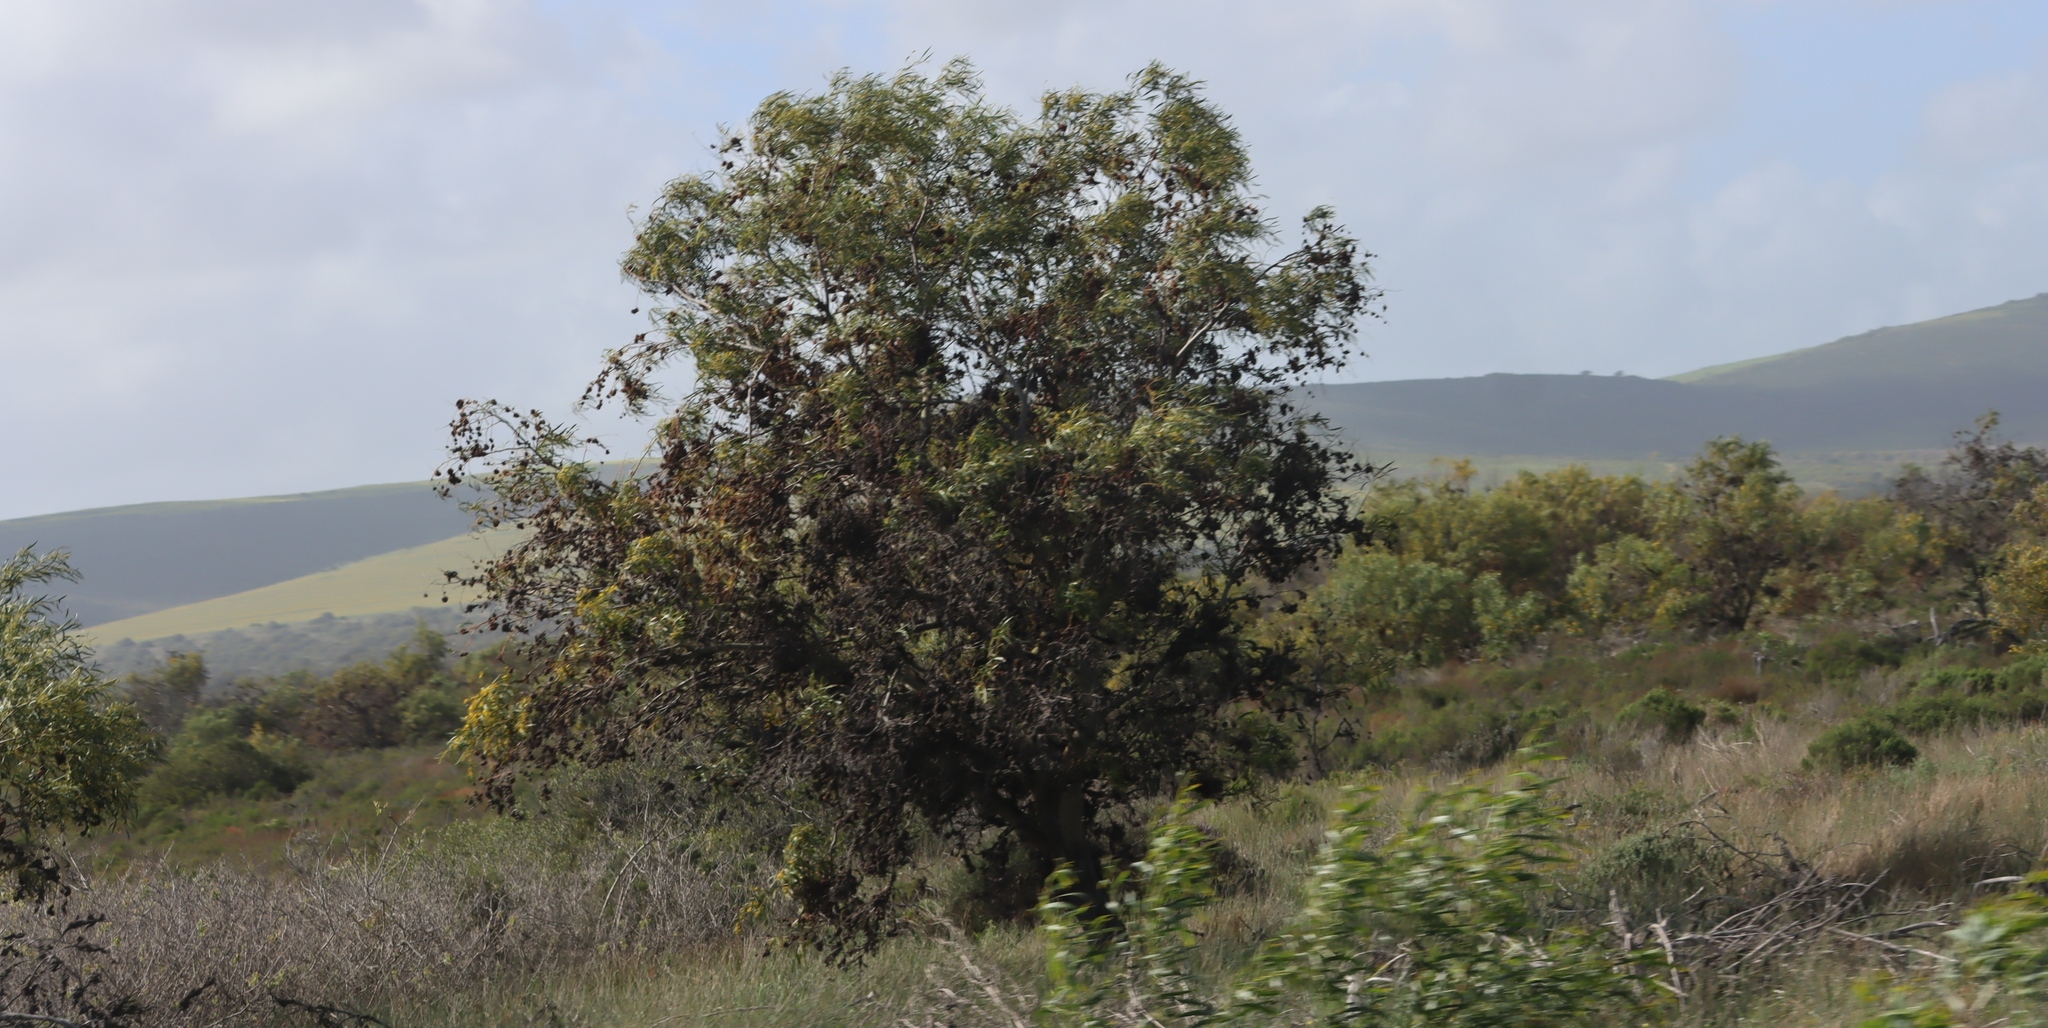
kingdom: Plantae
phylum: Tracheophyta
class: Magnoliopsida
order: Fabales
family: Fabaceae
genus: Acacia
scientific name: Acacia saligna
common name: Orange wattle
